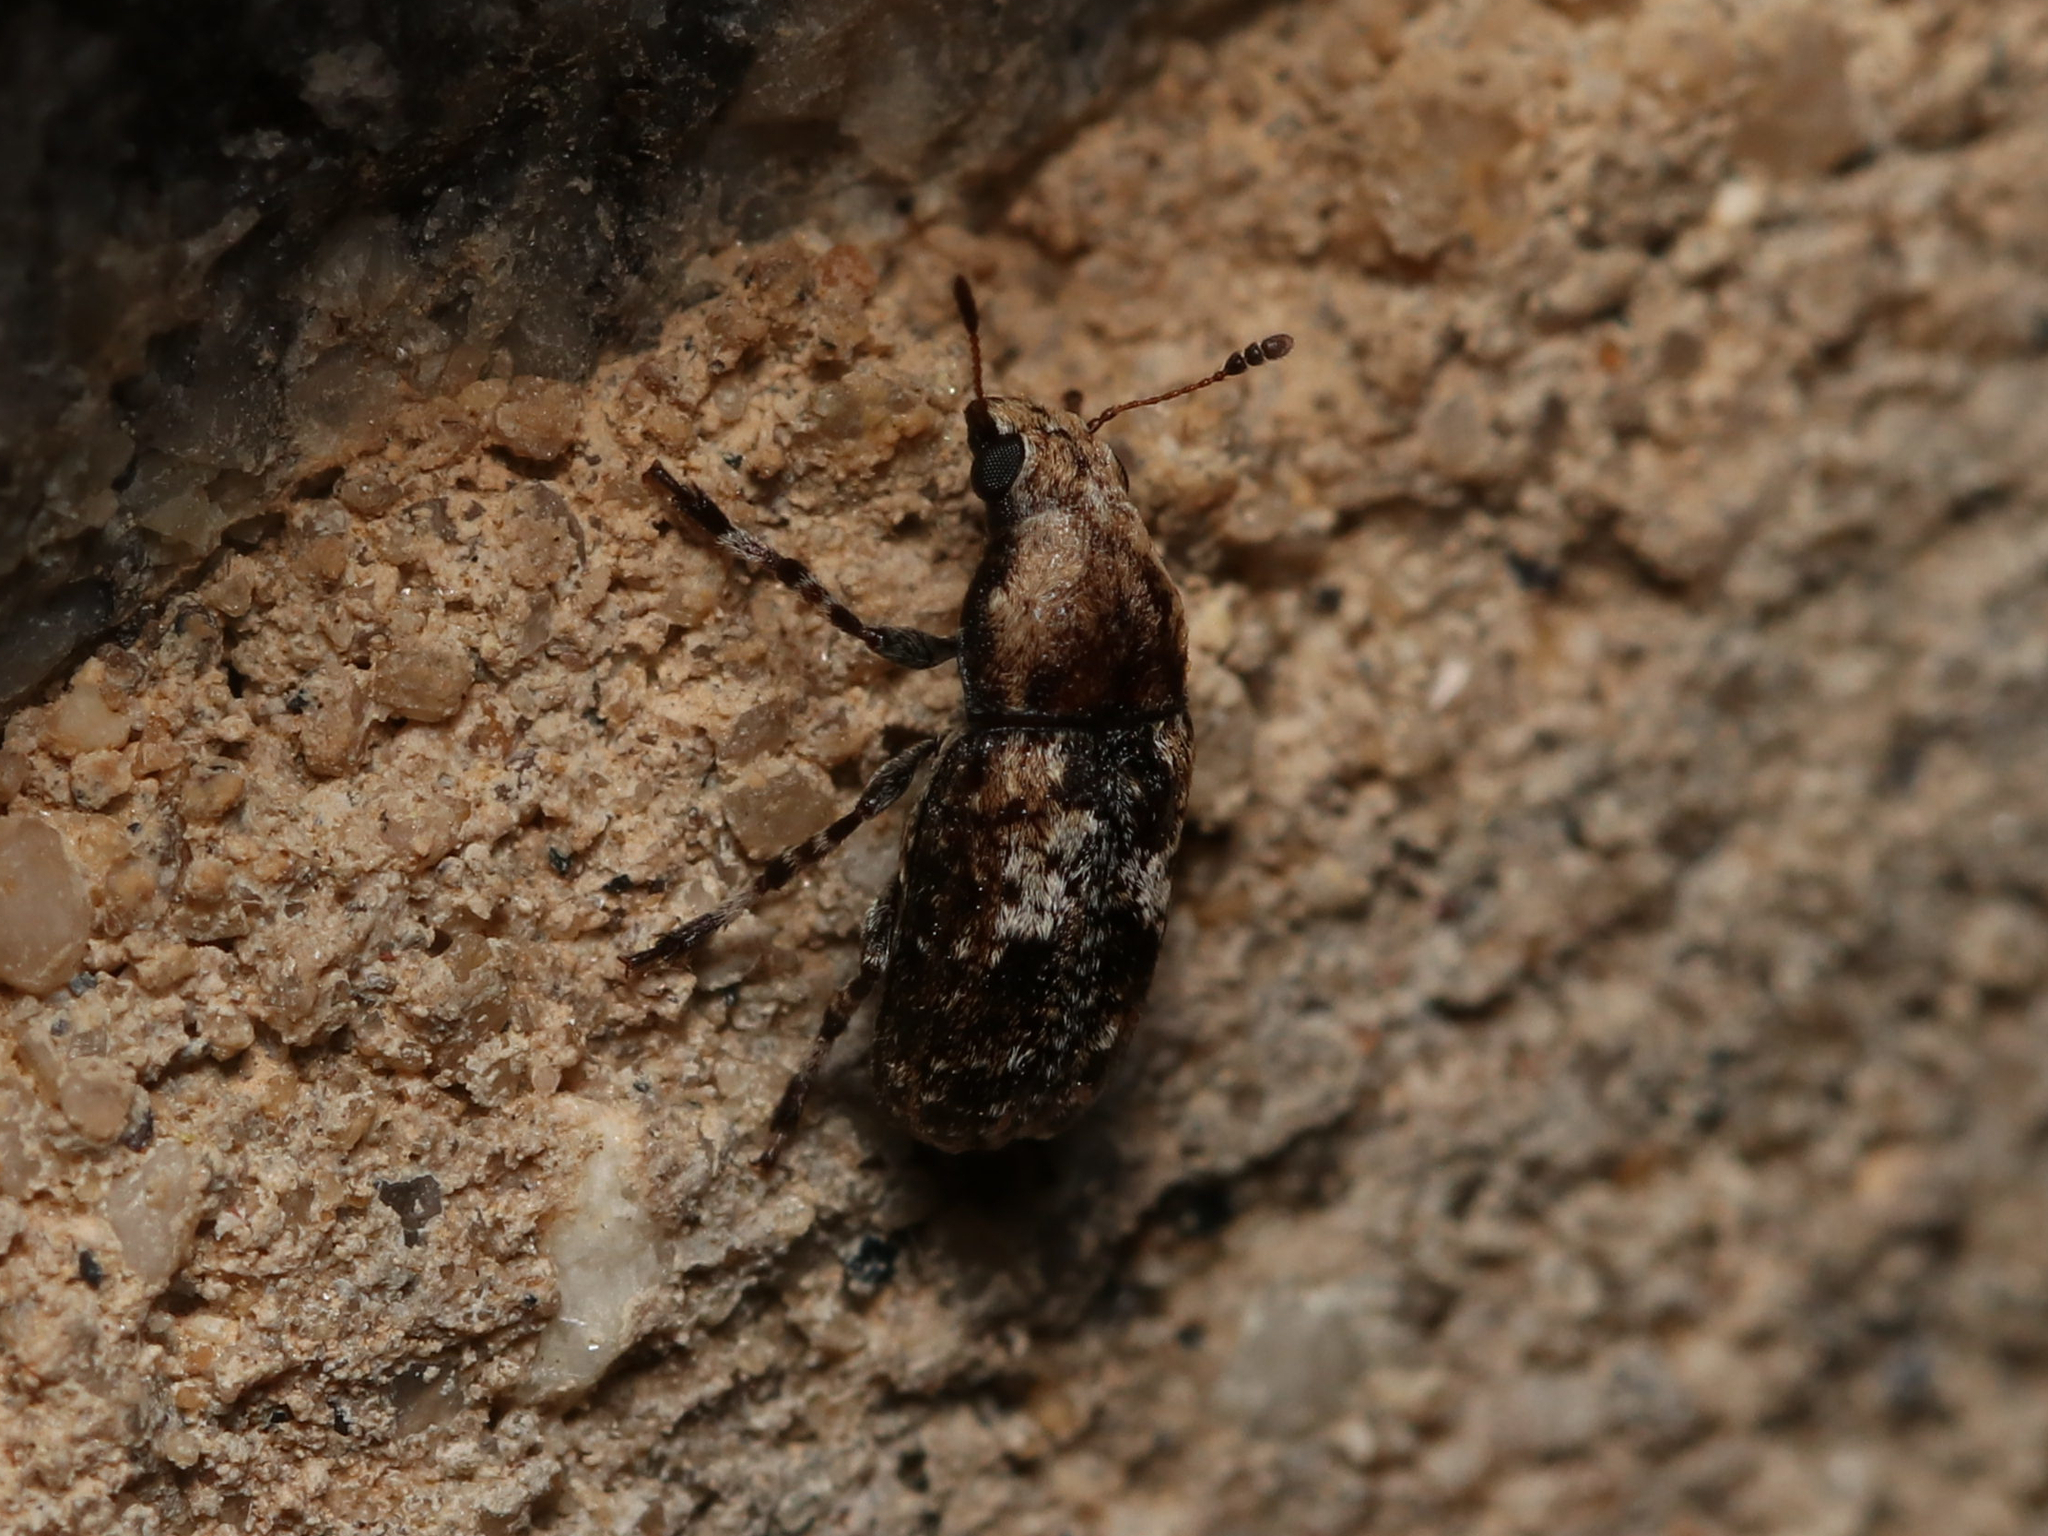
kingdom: Animalia
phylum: Arthropoda
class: Insecta
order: Coleoptera
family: Anthribidae
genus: Euparius
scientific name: Euparius paganus
